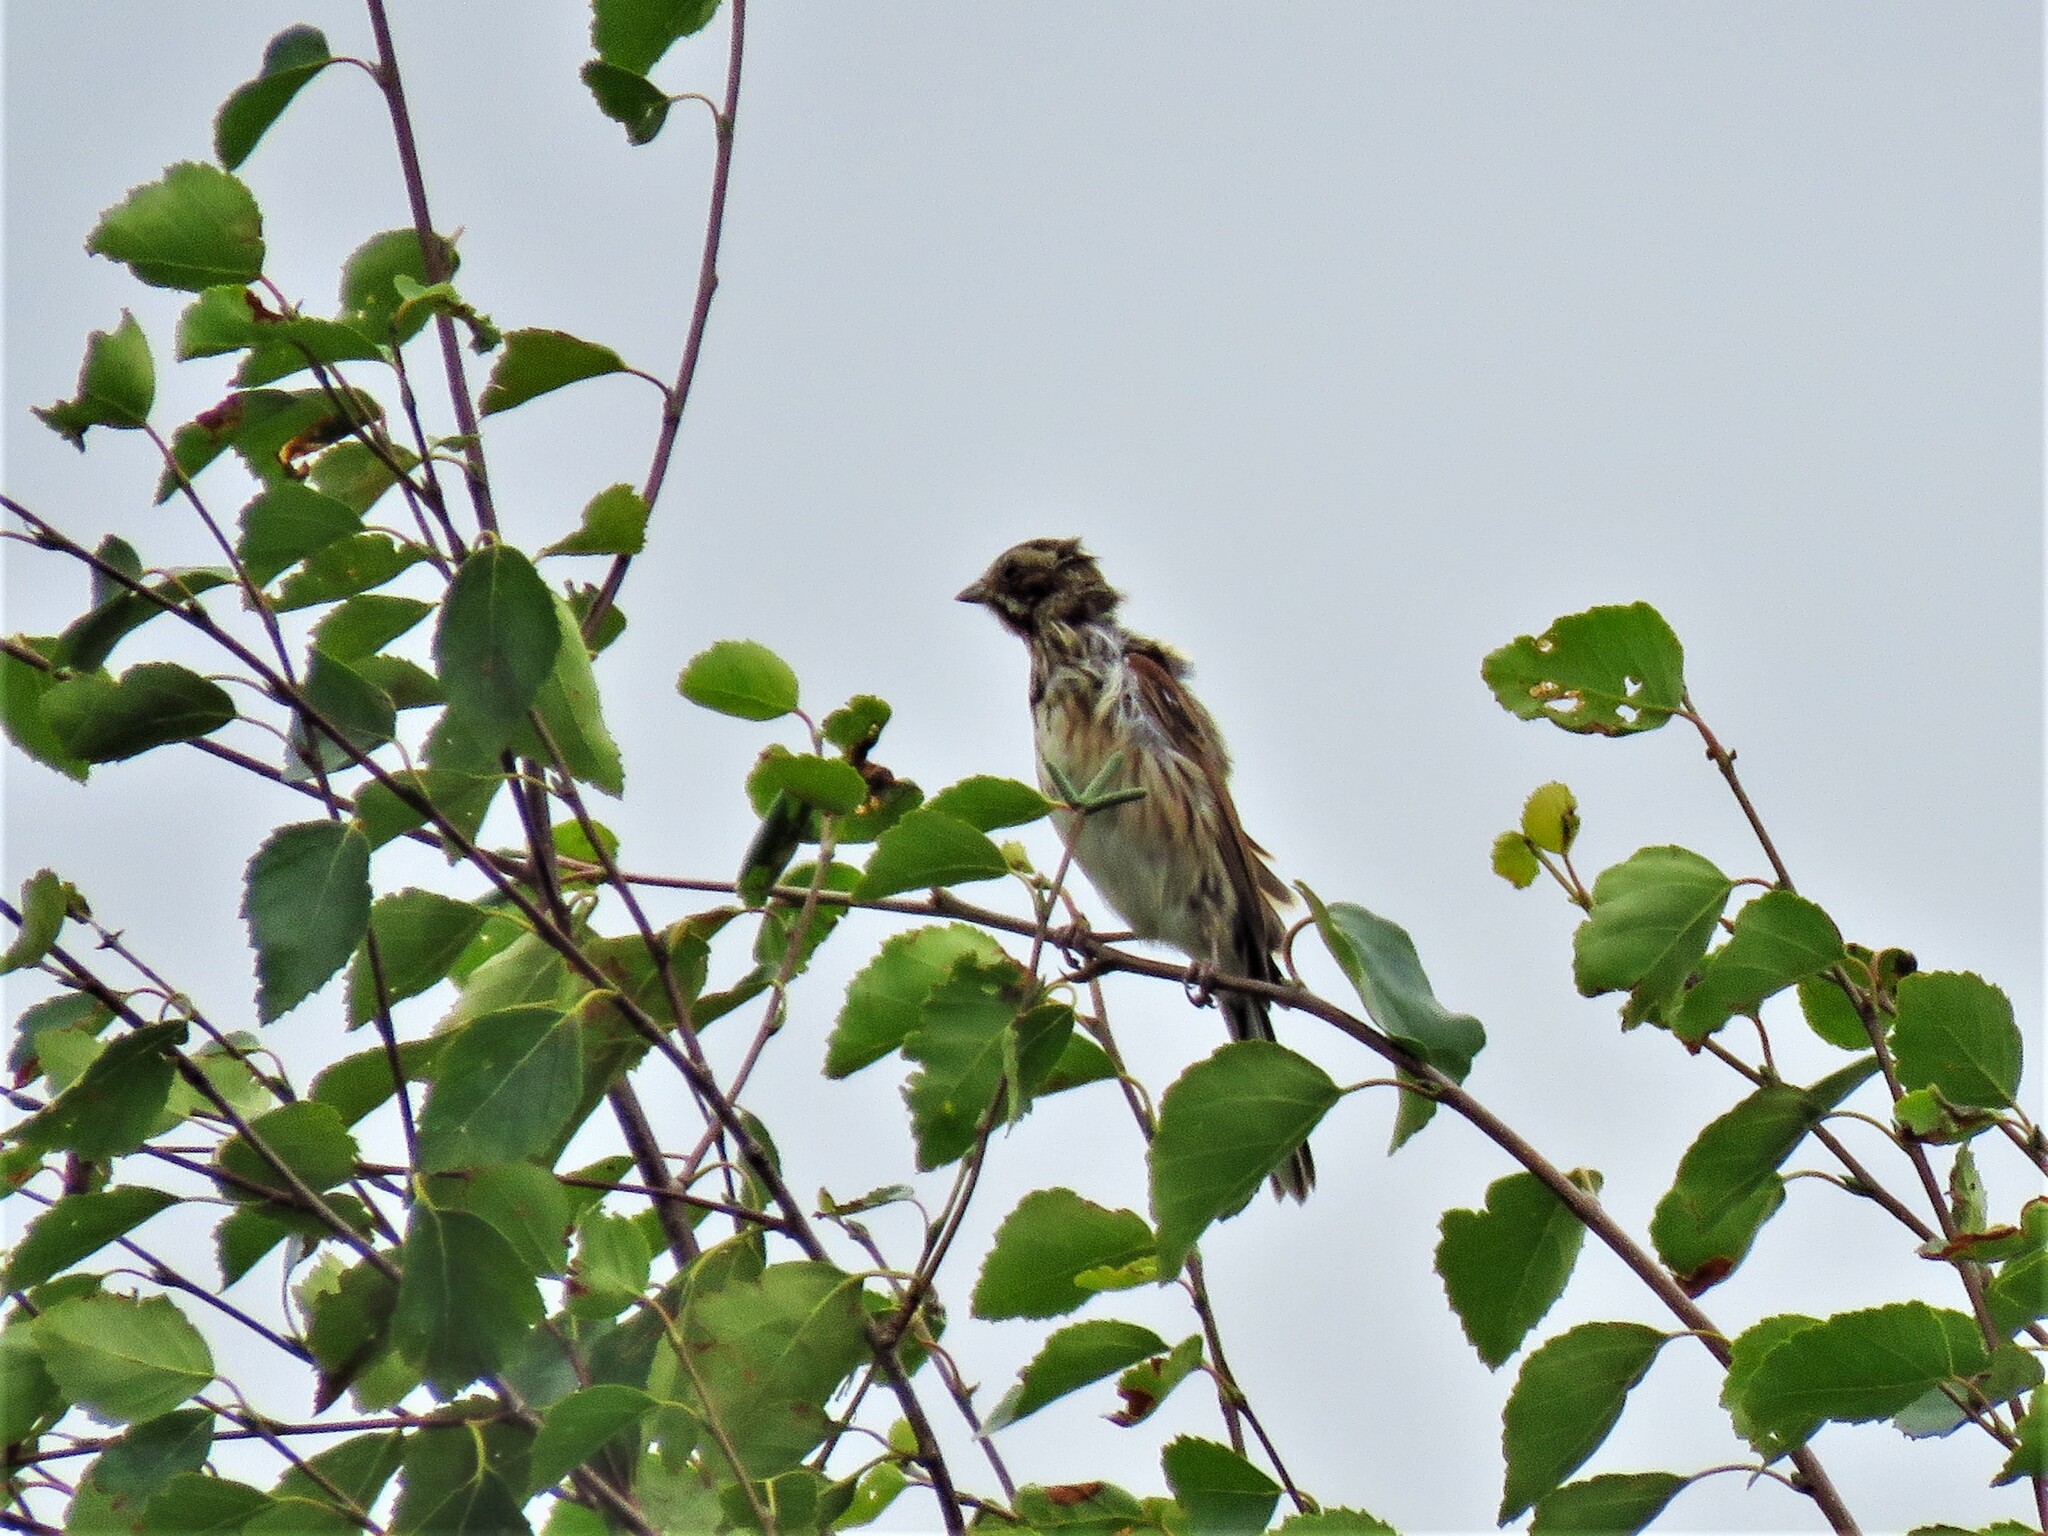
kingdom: Animalia
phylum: Chordata
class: Aves
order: Passeriformes
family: Emberizidae
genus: Emberiza
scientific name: Emberiza schoeniclus
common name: Reed bunting
